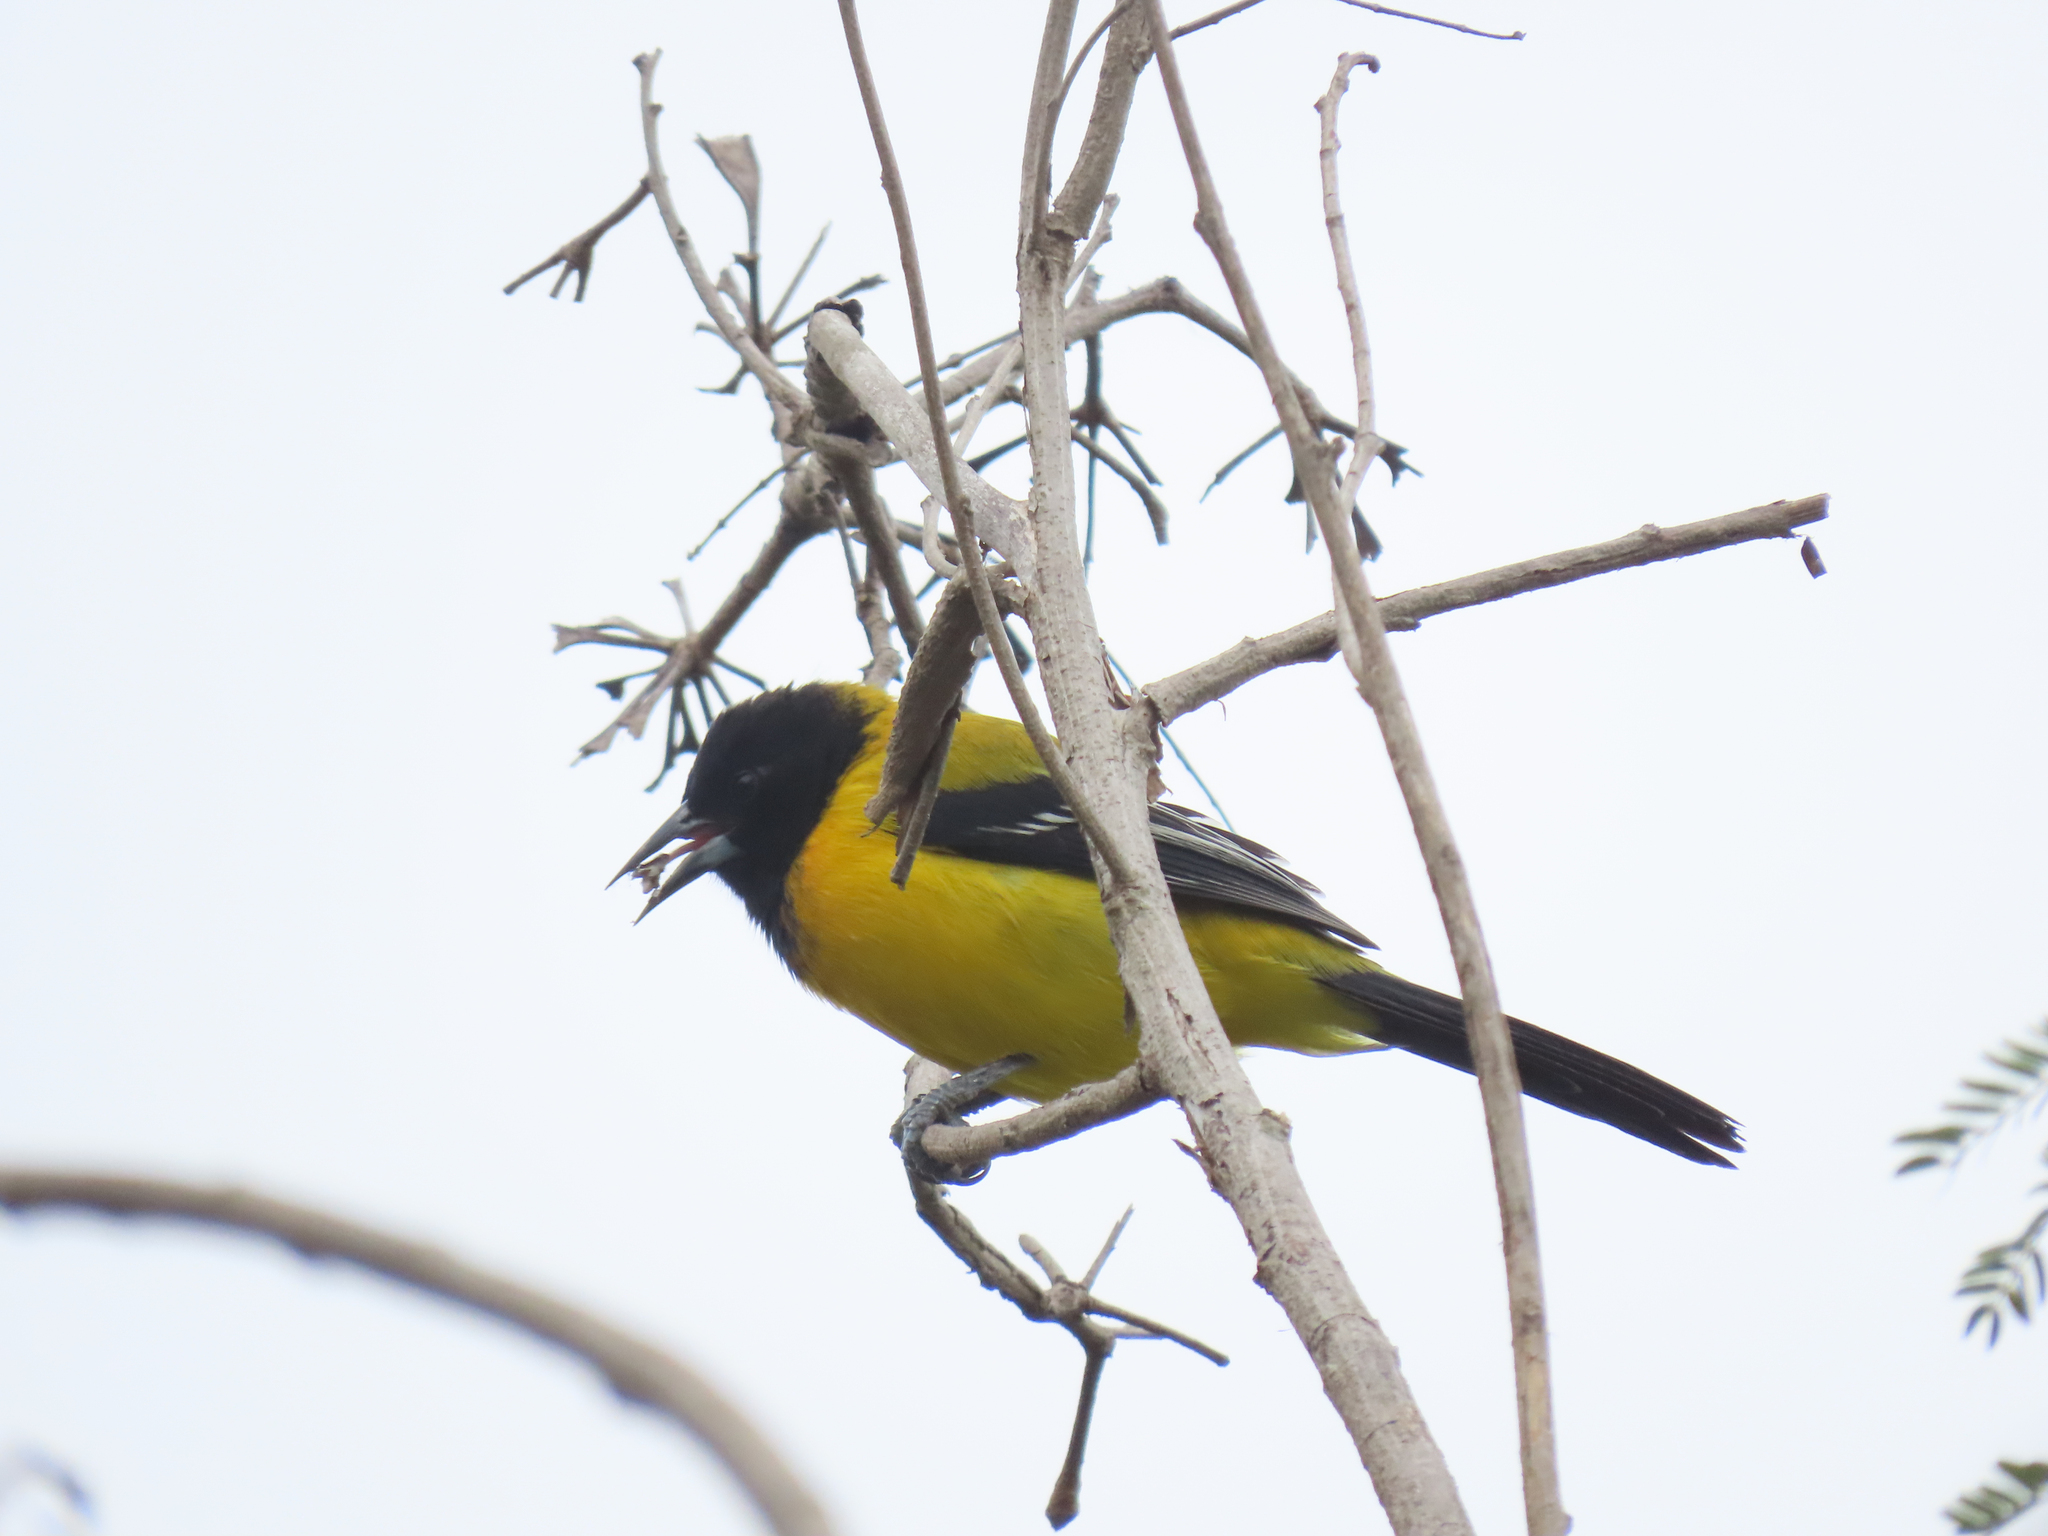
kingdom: Animalia
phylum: Chordata
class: Aves
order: Passeriformes
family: Icteridae
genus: Icterus
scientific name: Icterus graduacauda
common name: Audubon's oriole
